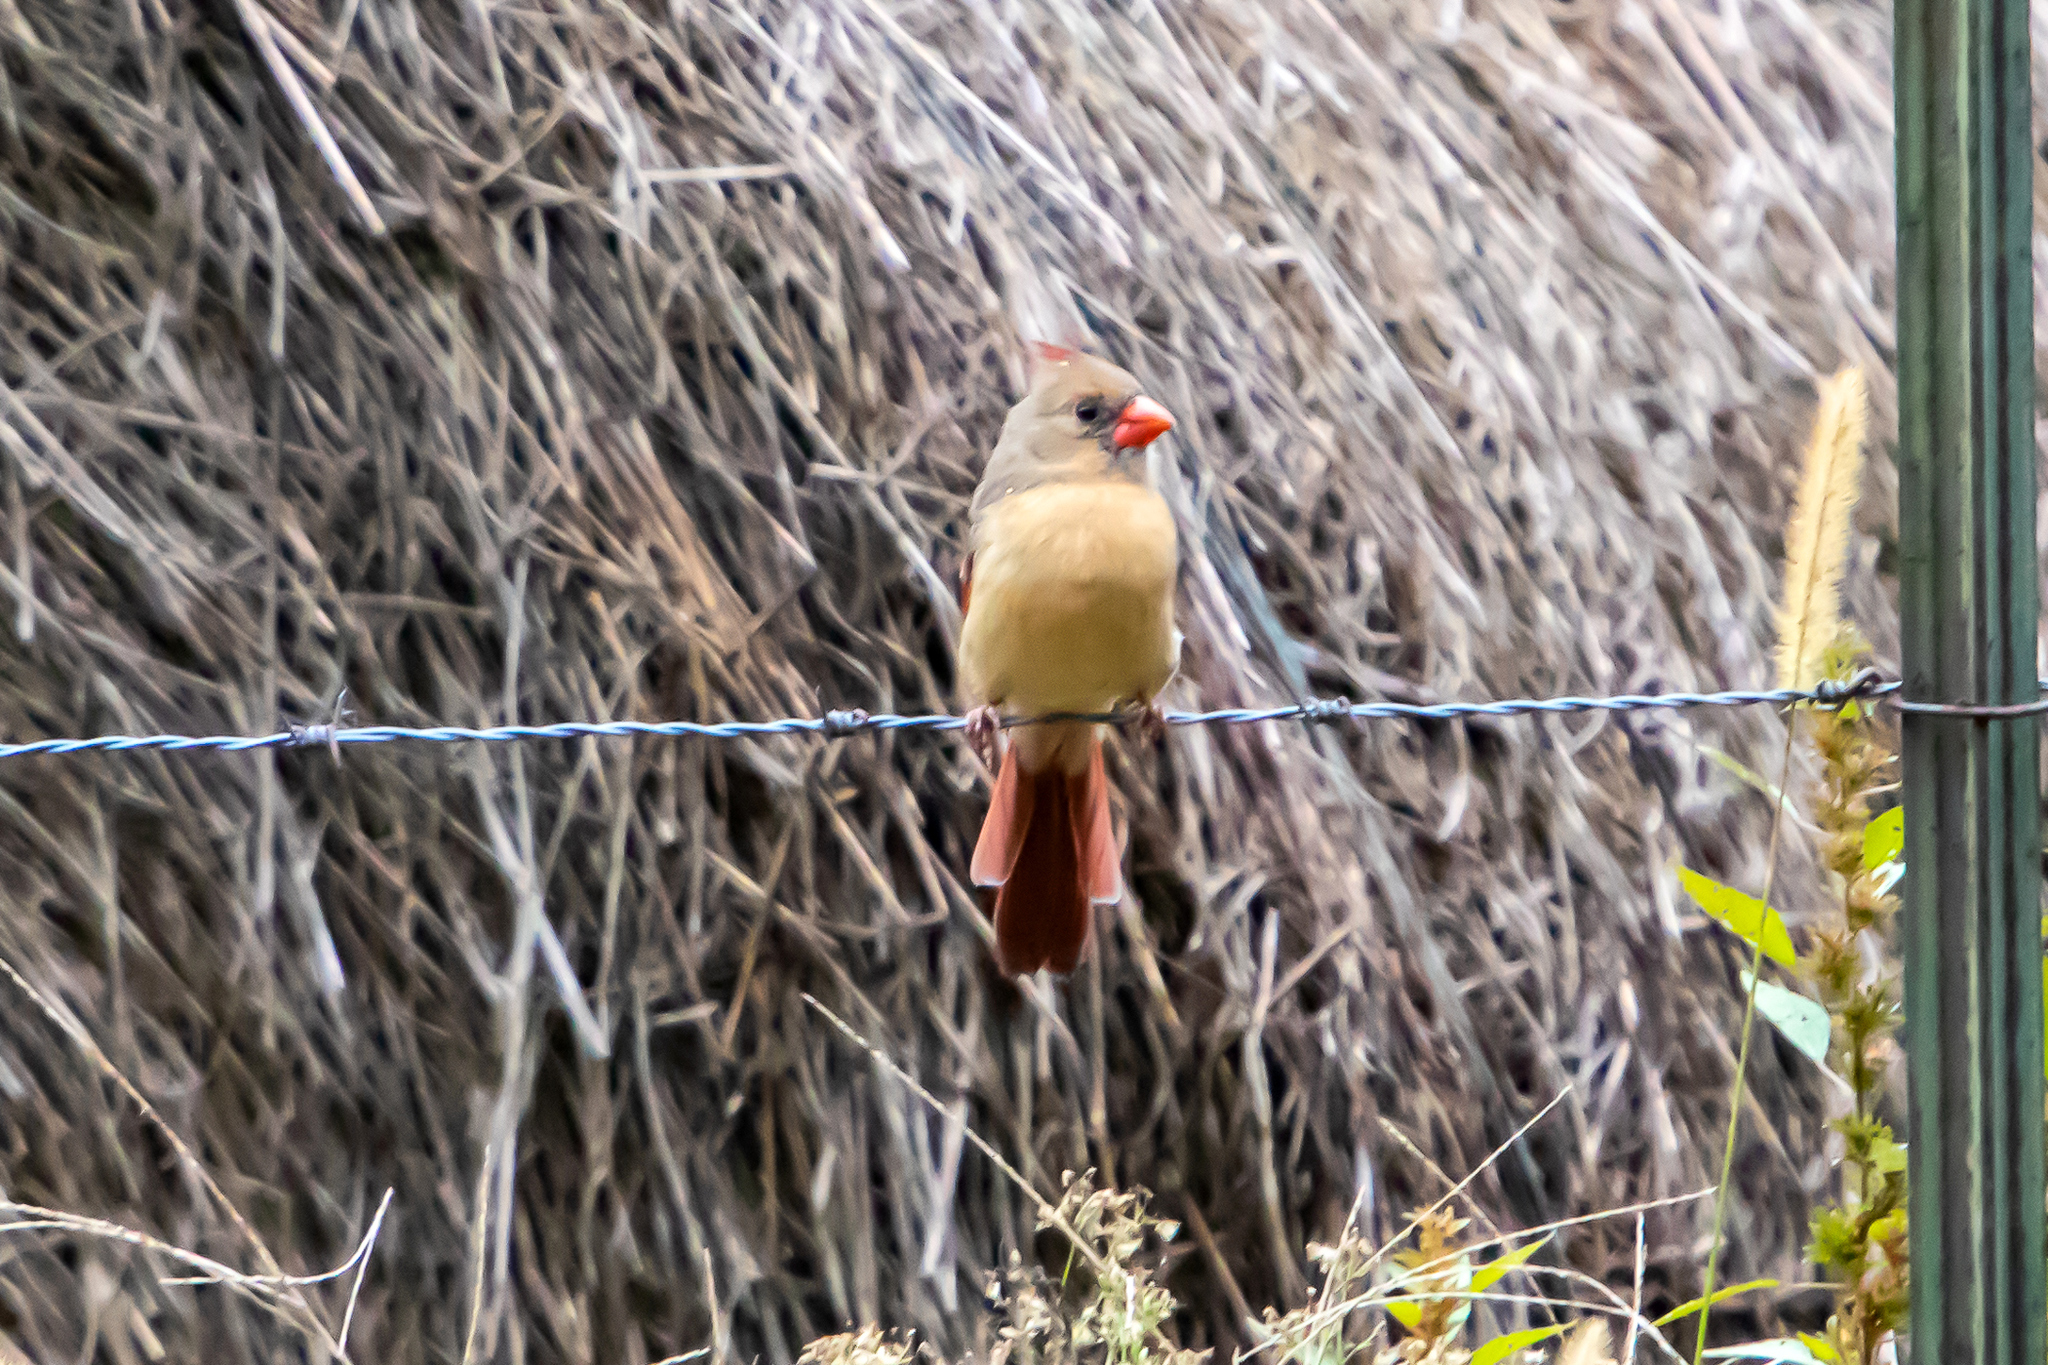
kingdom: Animalia
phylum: Chordata
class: Aves
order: Passeriformes
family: Cardinalidae
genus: Cardinalis
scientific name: Cardinalis cardinalis
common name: Northern cardinal
